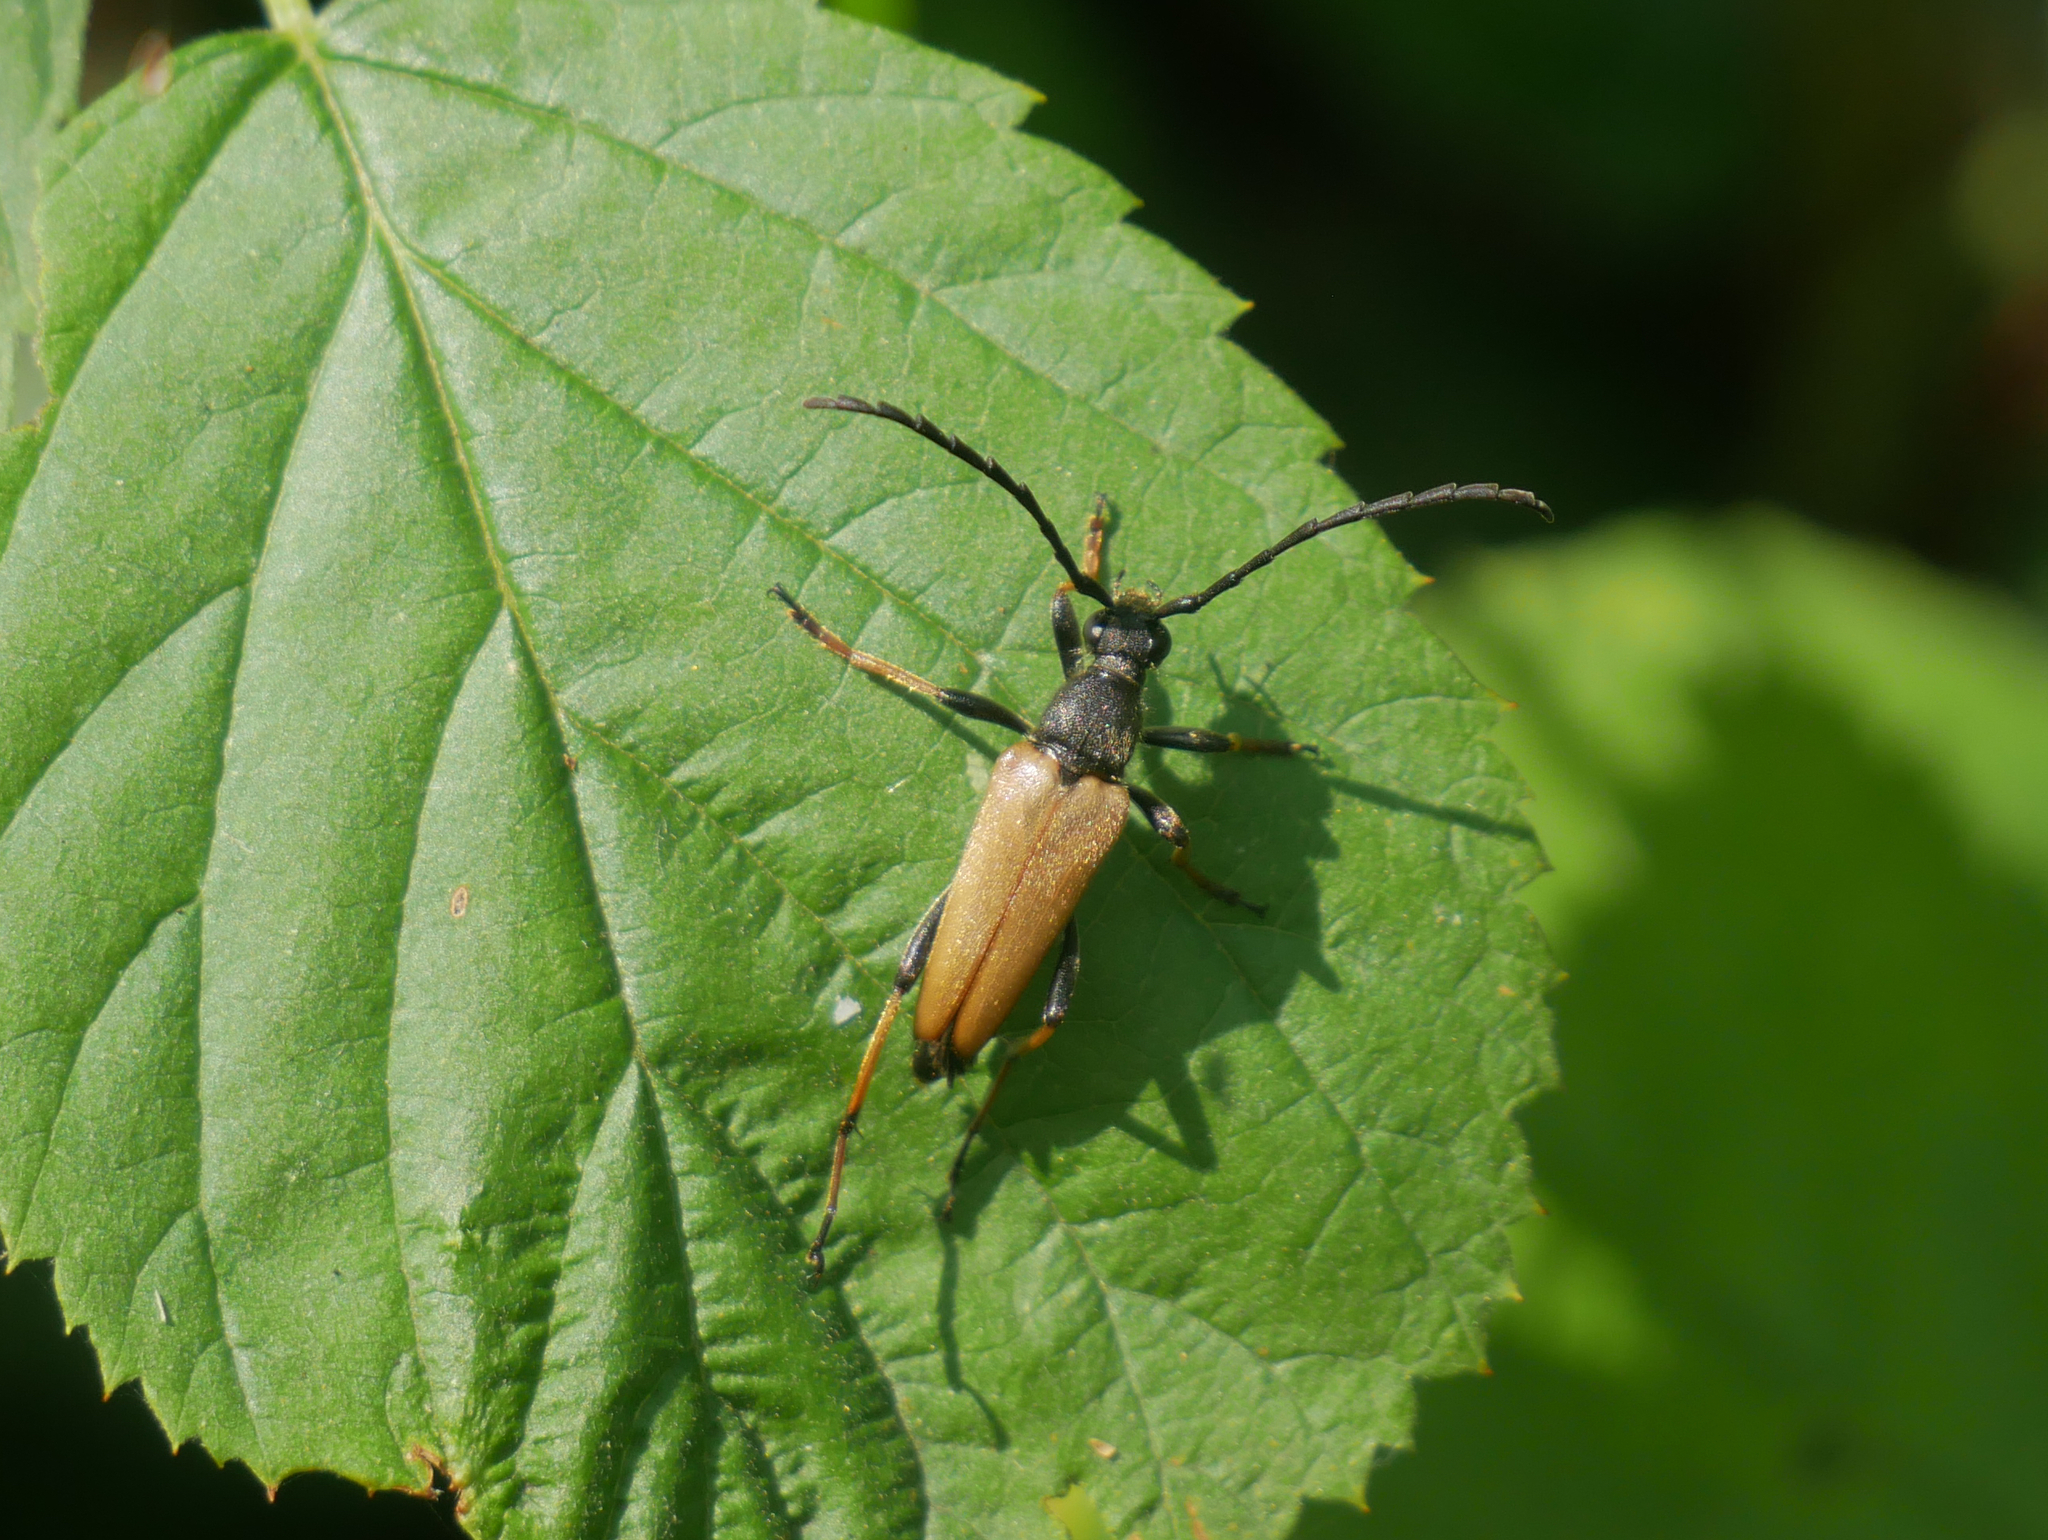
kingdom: Animalia
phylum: Arthropoda
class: Insecta
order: Coleoptera
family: Cerambycidae
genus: Stictoleptura
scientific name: Stictoleptura rubra
